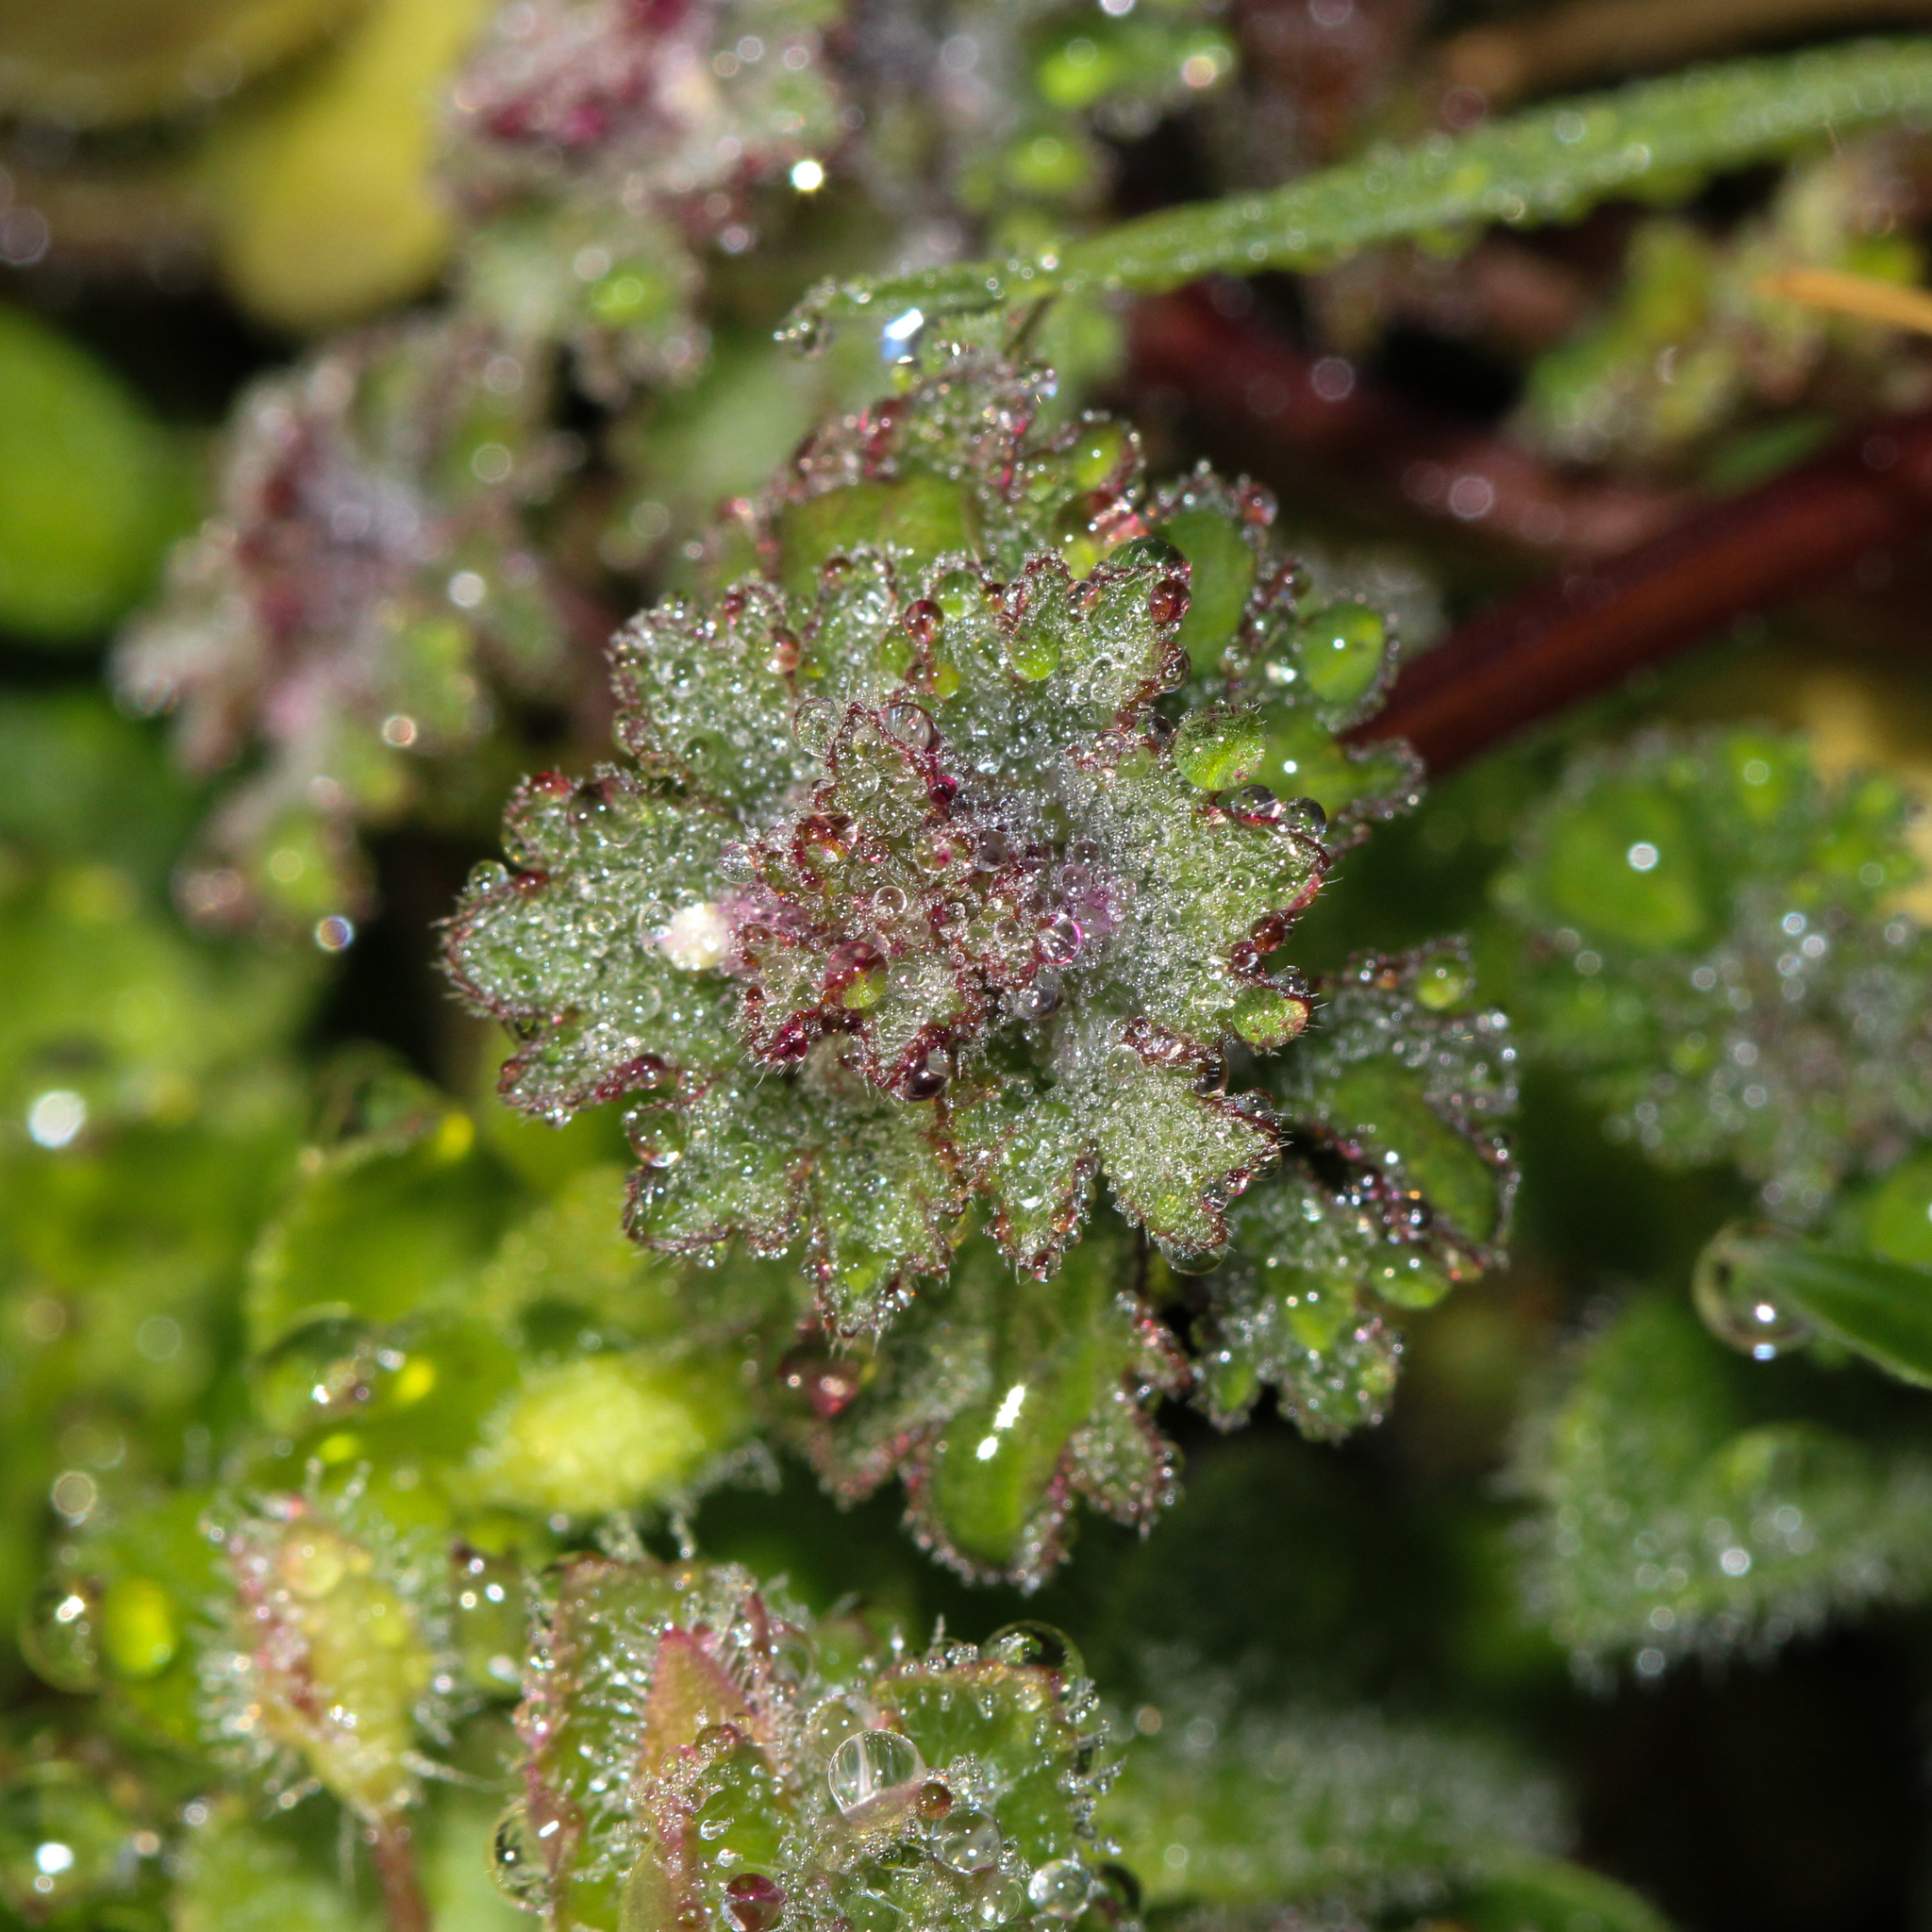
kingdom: Plantae
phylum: Tracheophyta
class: Magnoliopsida
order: Lamiales
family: Lamiaceae
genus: Lamium
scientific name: Lamium amplexicaule
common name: Henbit dead-nettle
